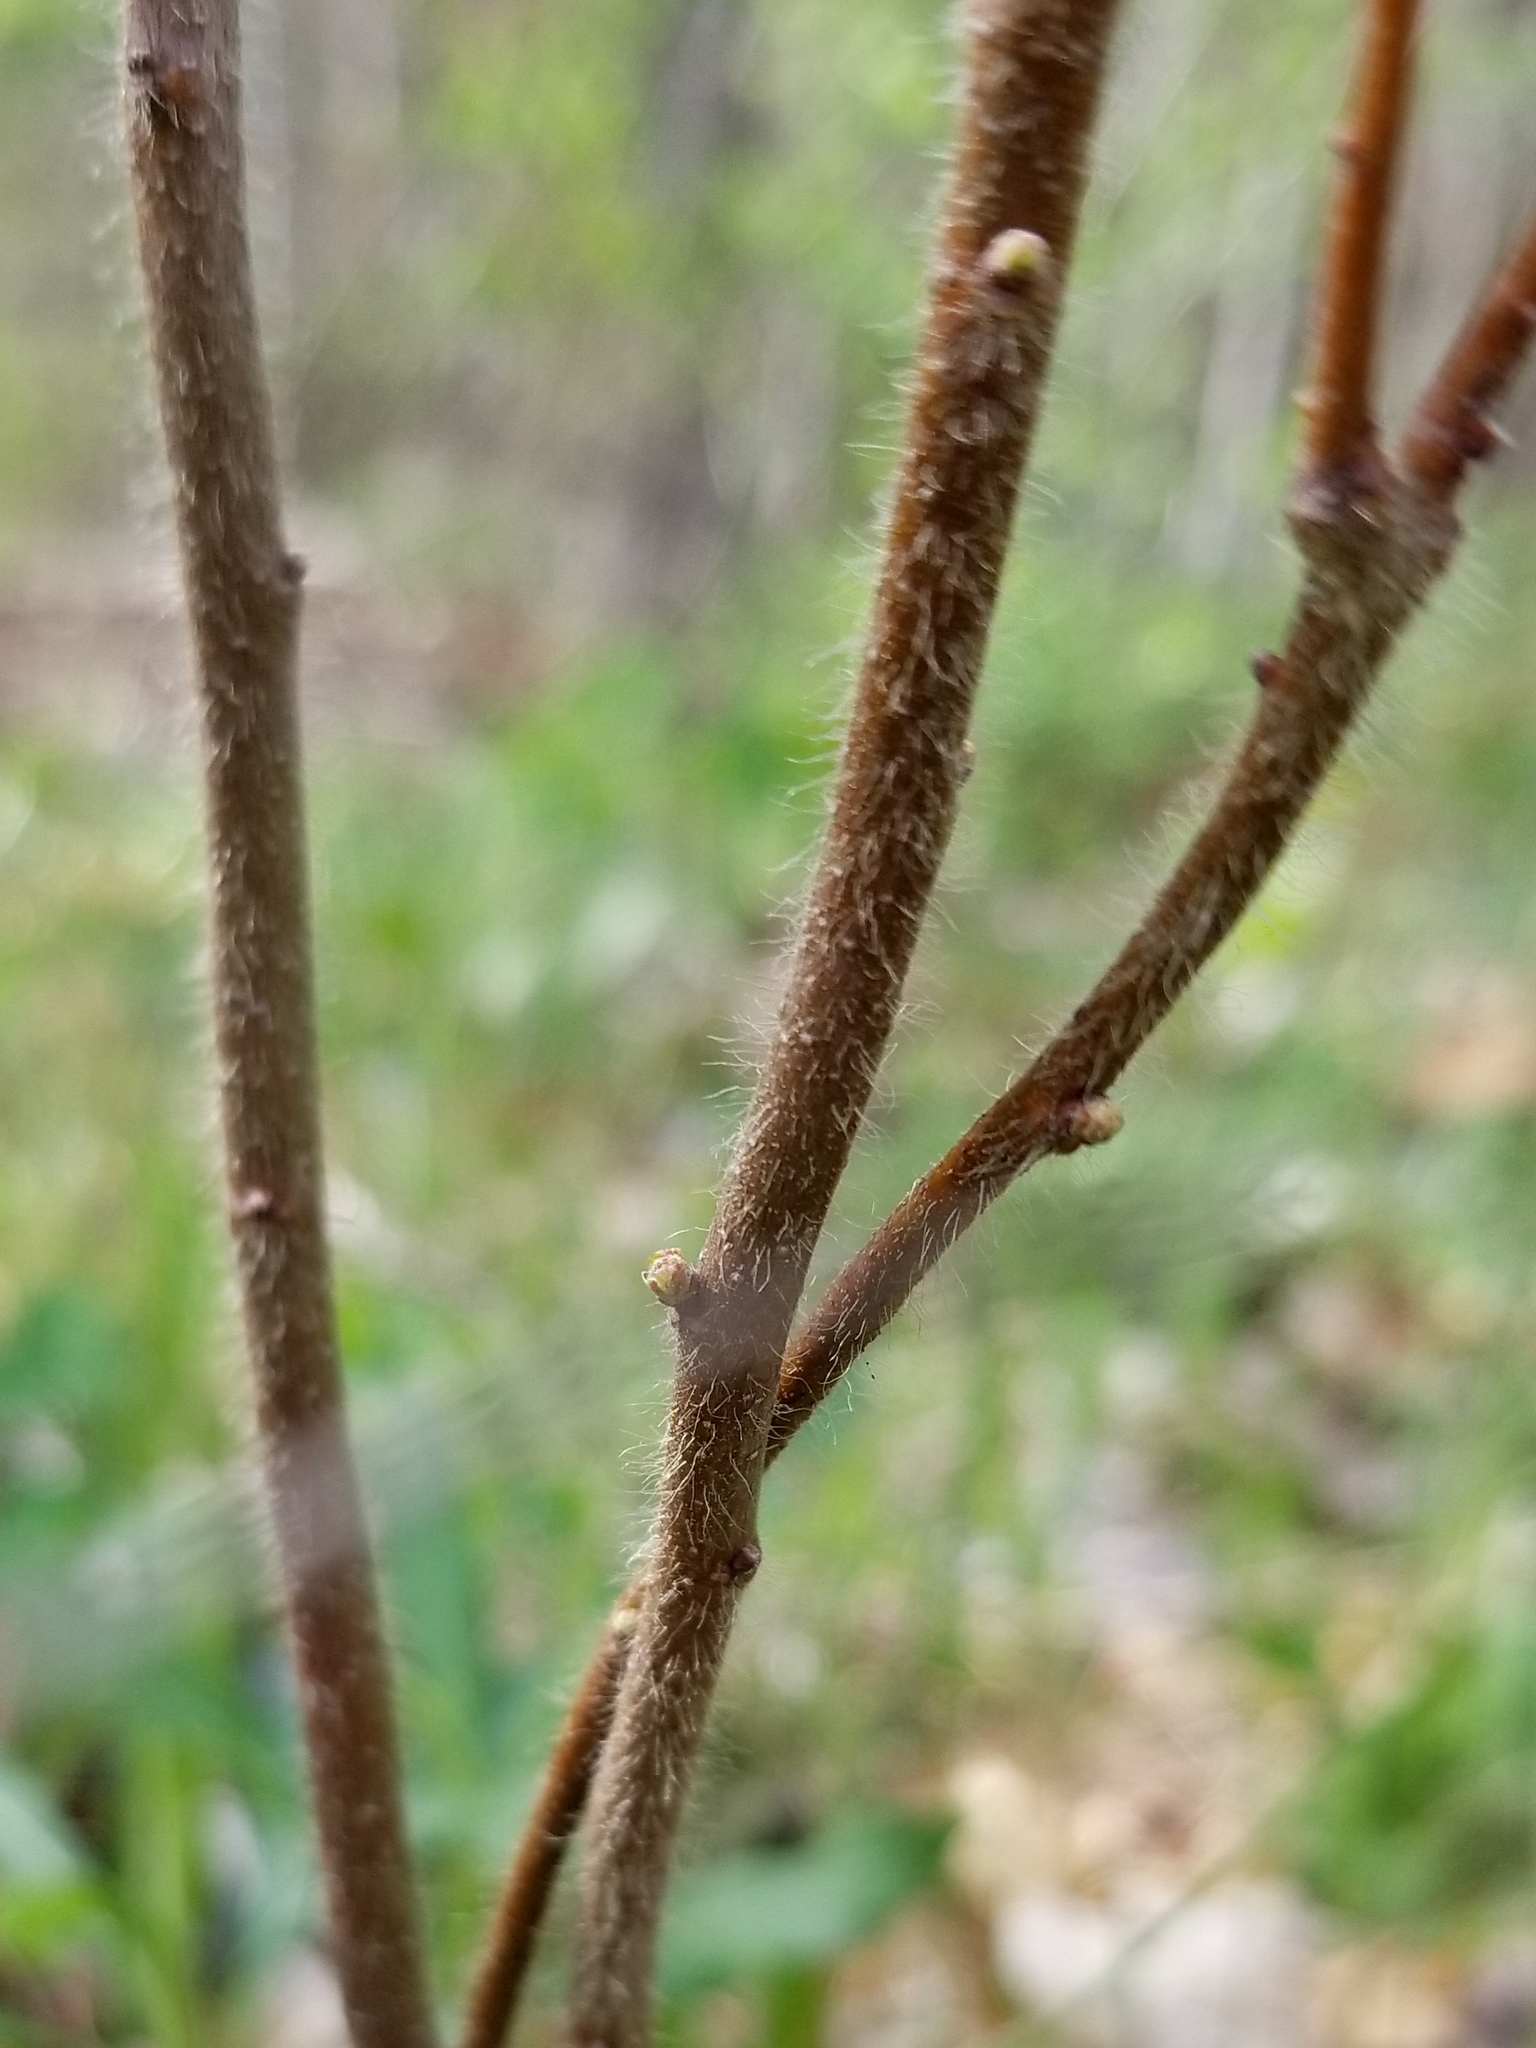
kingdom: Plantae
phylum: Tracheophyta
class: Magnoliopsida
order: Fagales
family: Myricaceae
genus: Comptonia
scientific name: Comptonia peregrina
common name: Sweet-fern
